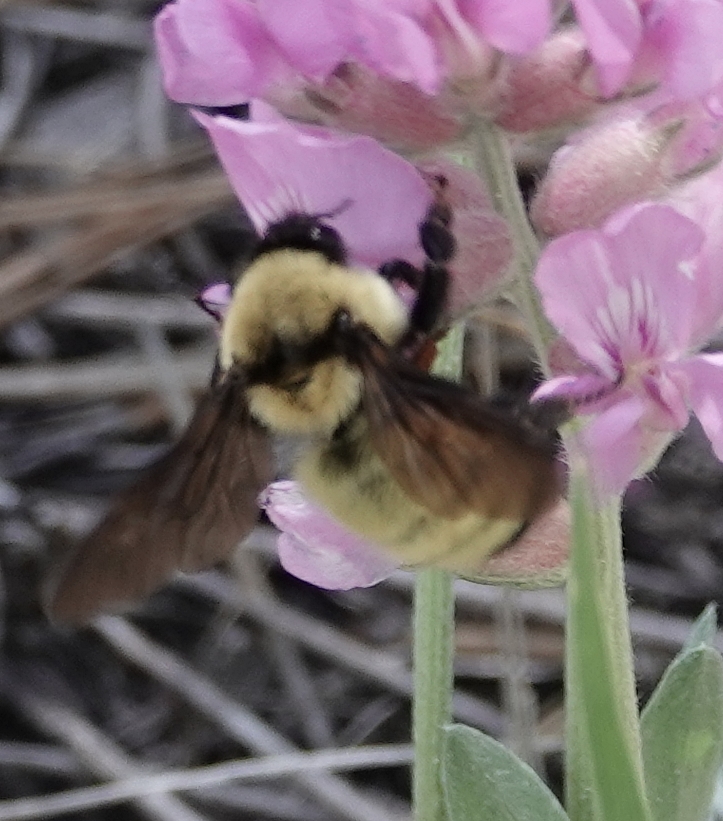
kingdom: Animalia
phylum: Arthropoda
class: Insecta
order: Hymenoptera
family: Apidae
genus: Bombus
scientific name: Bombus fervidus
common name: Yellow bumble bee
